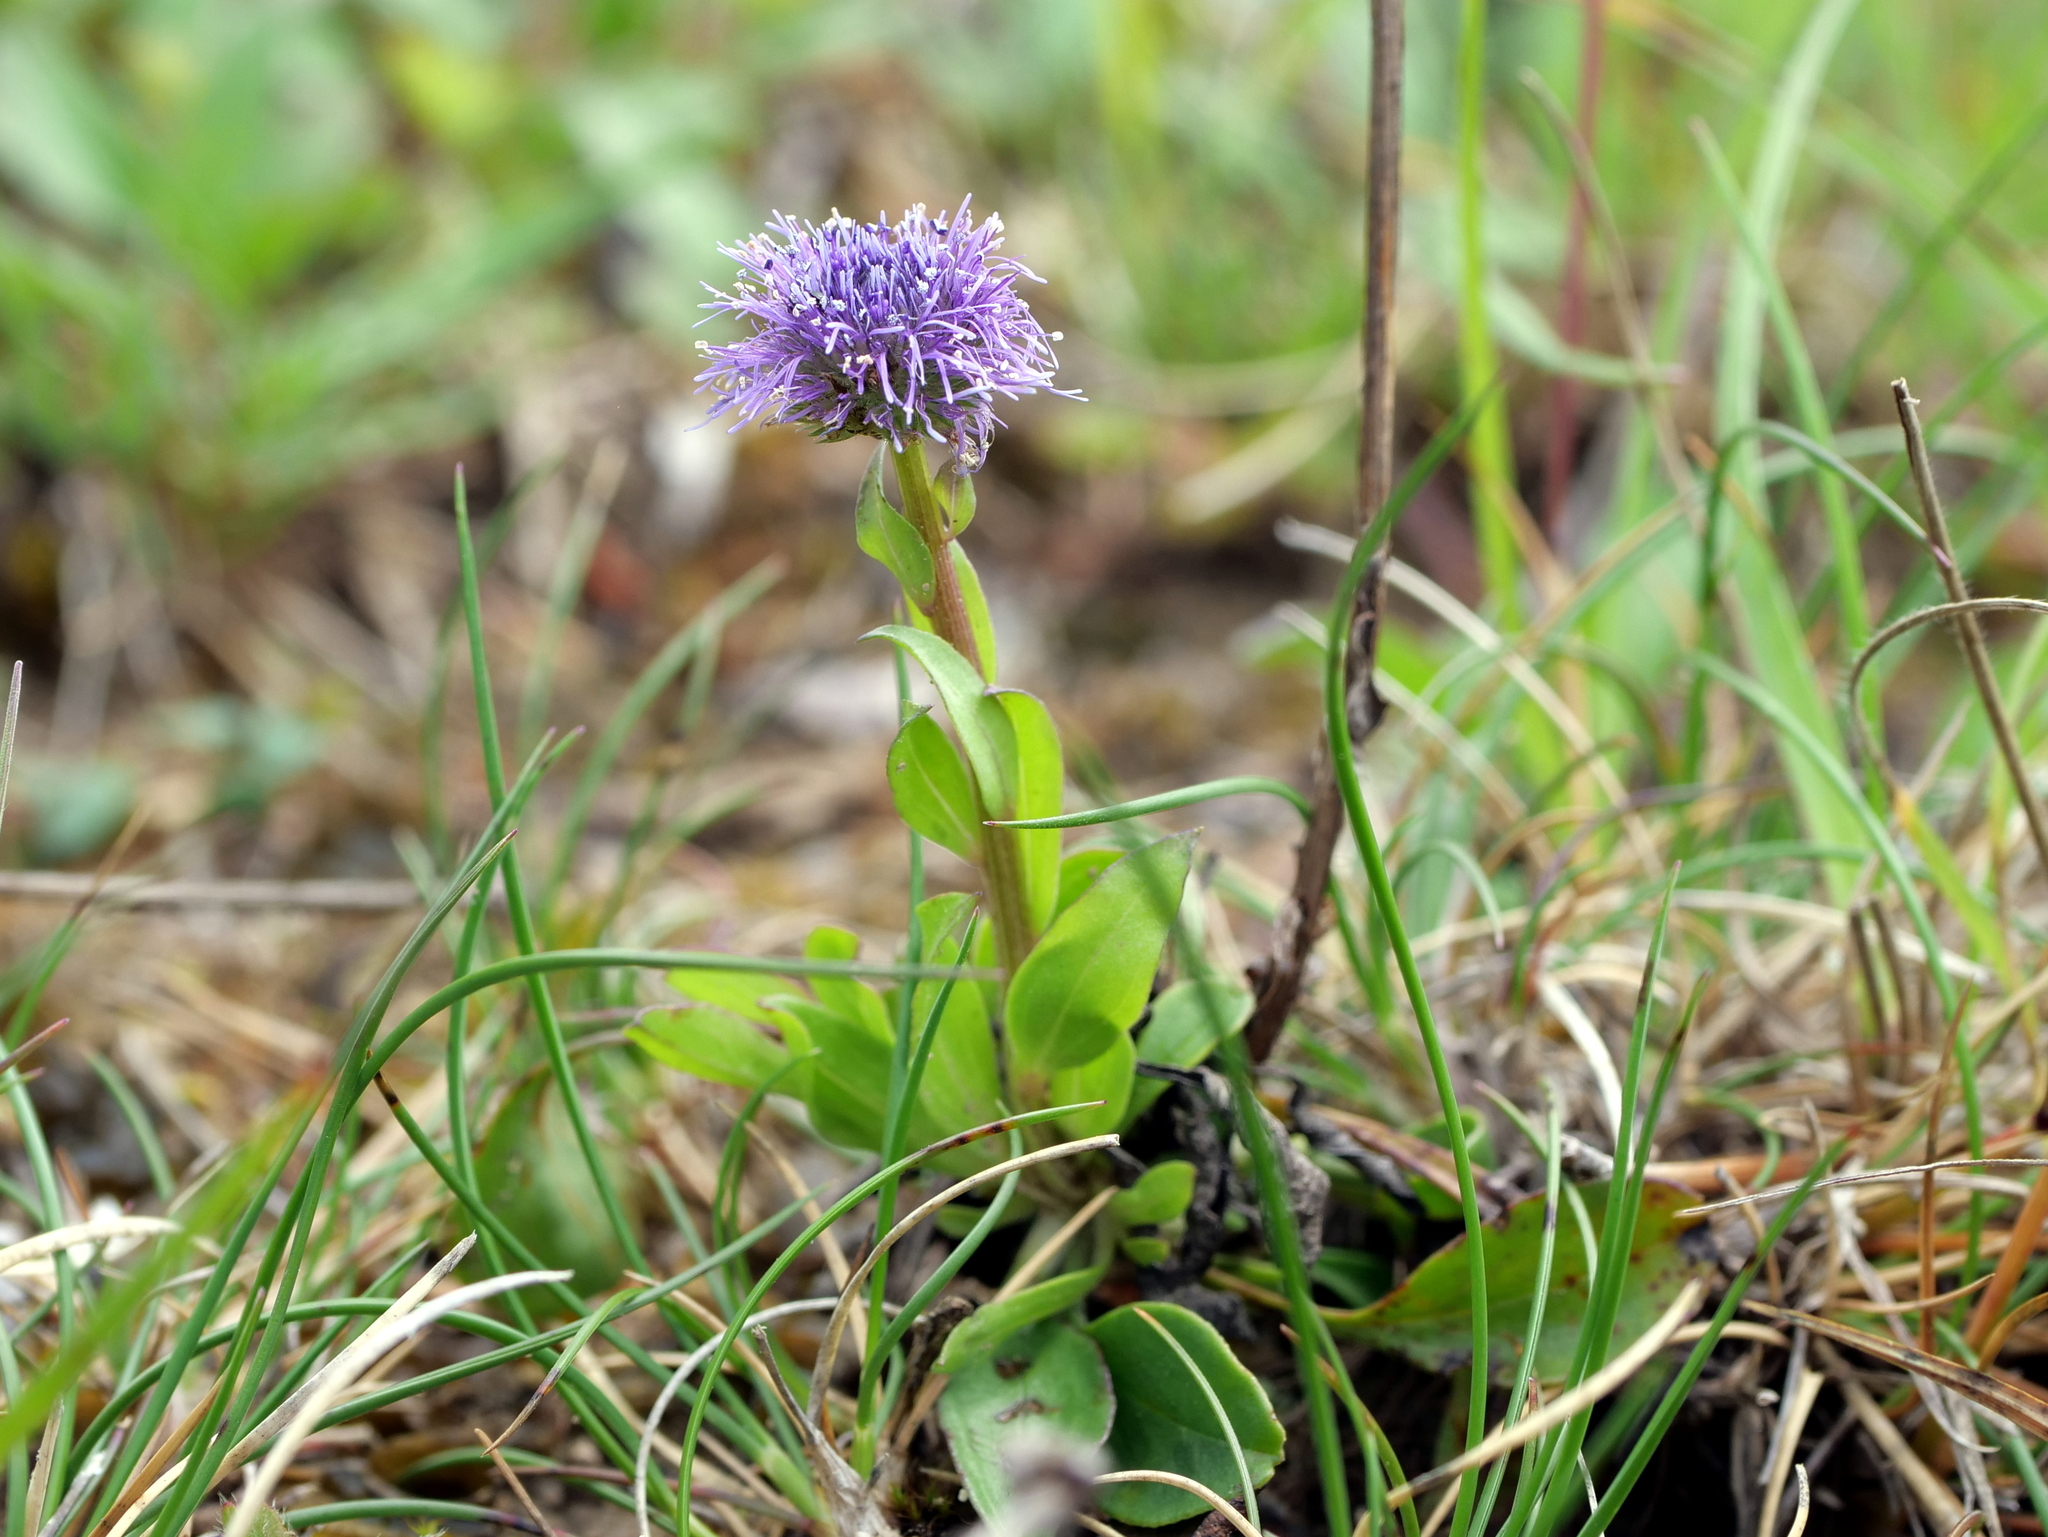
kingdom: Plantae
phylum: Tracheophyta
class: Magnoliopsida
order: Lamiales
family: Plantaginaceae
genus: Globularia
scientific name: Globularia bisnagarica
